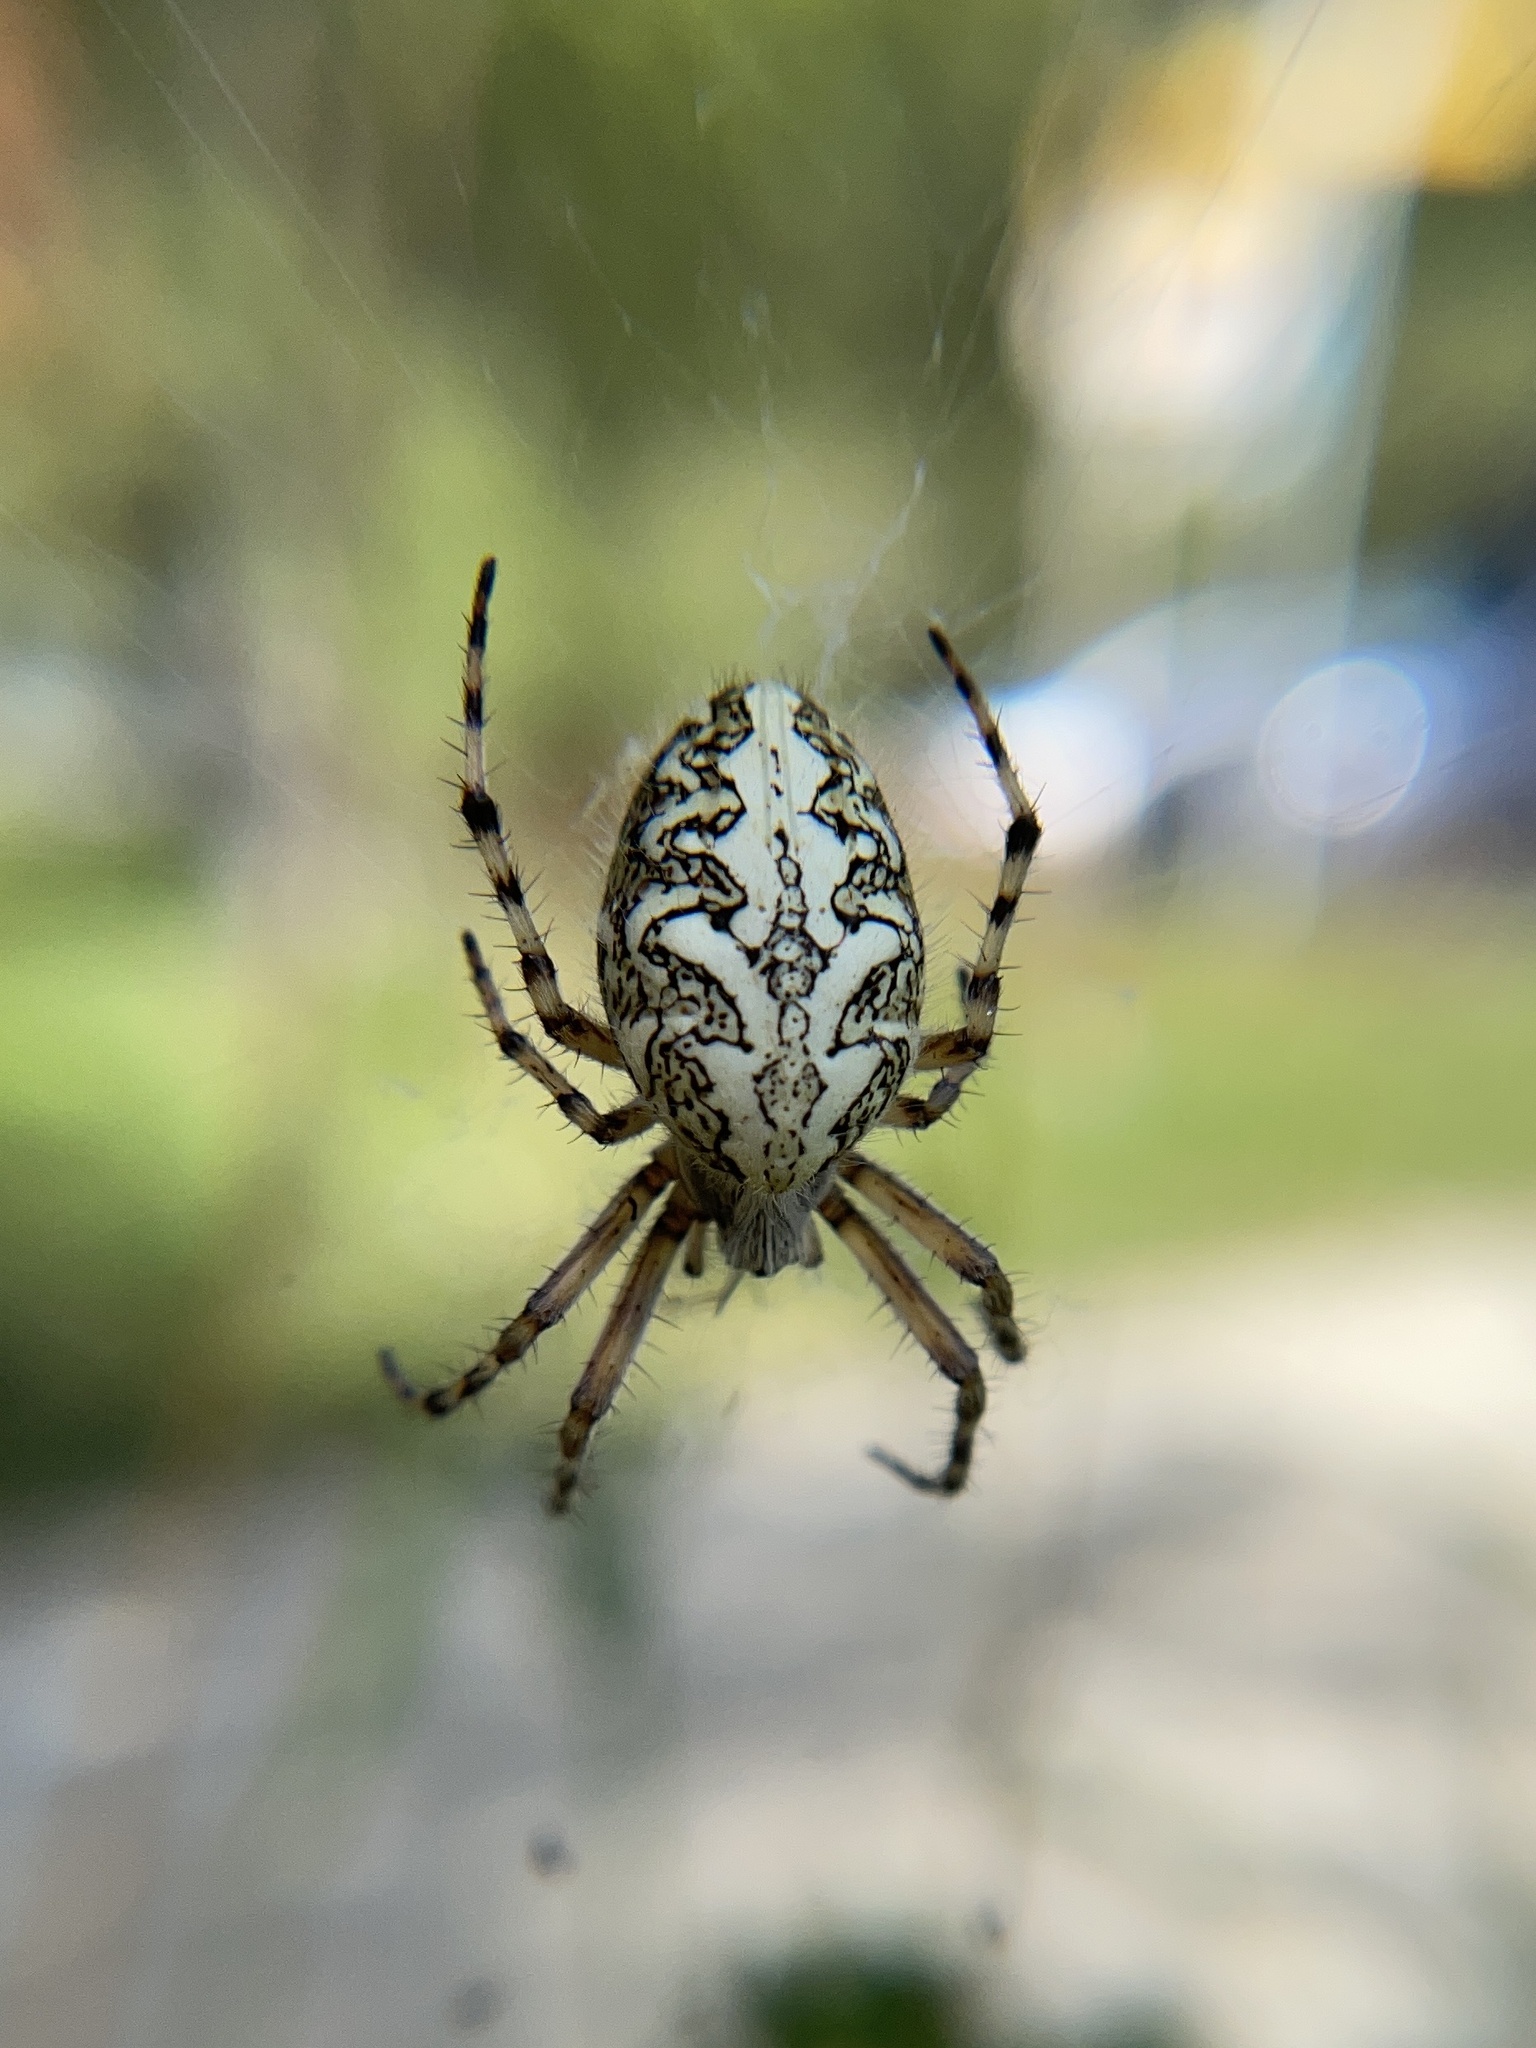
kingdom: Animalia
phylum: Arthropoda
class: Arachnida
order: Araneae
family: Araneidae
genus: Aculepeira
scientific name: Aculepeira ceropegia
